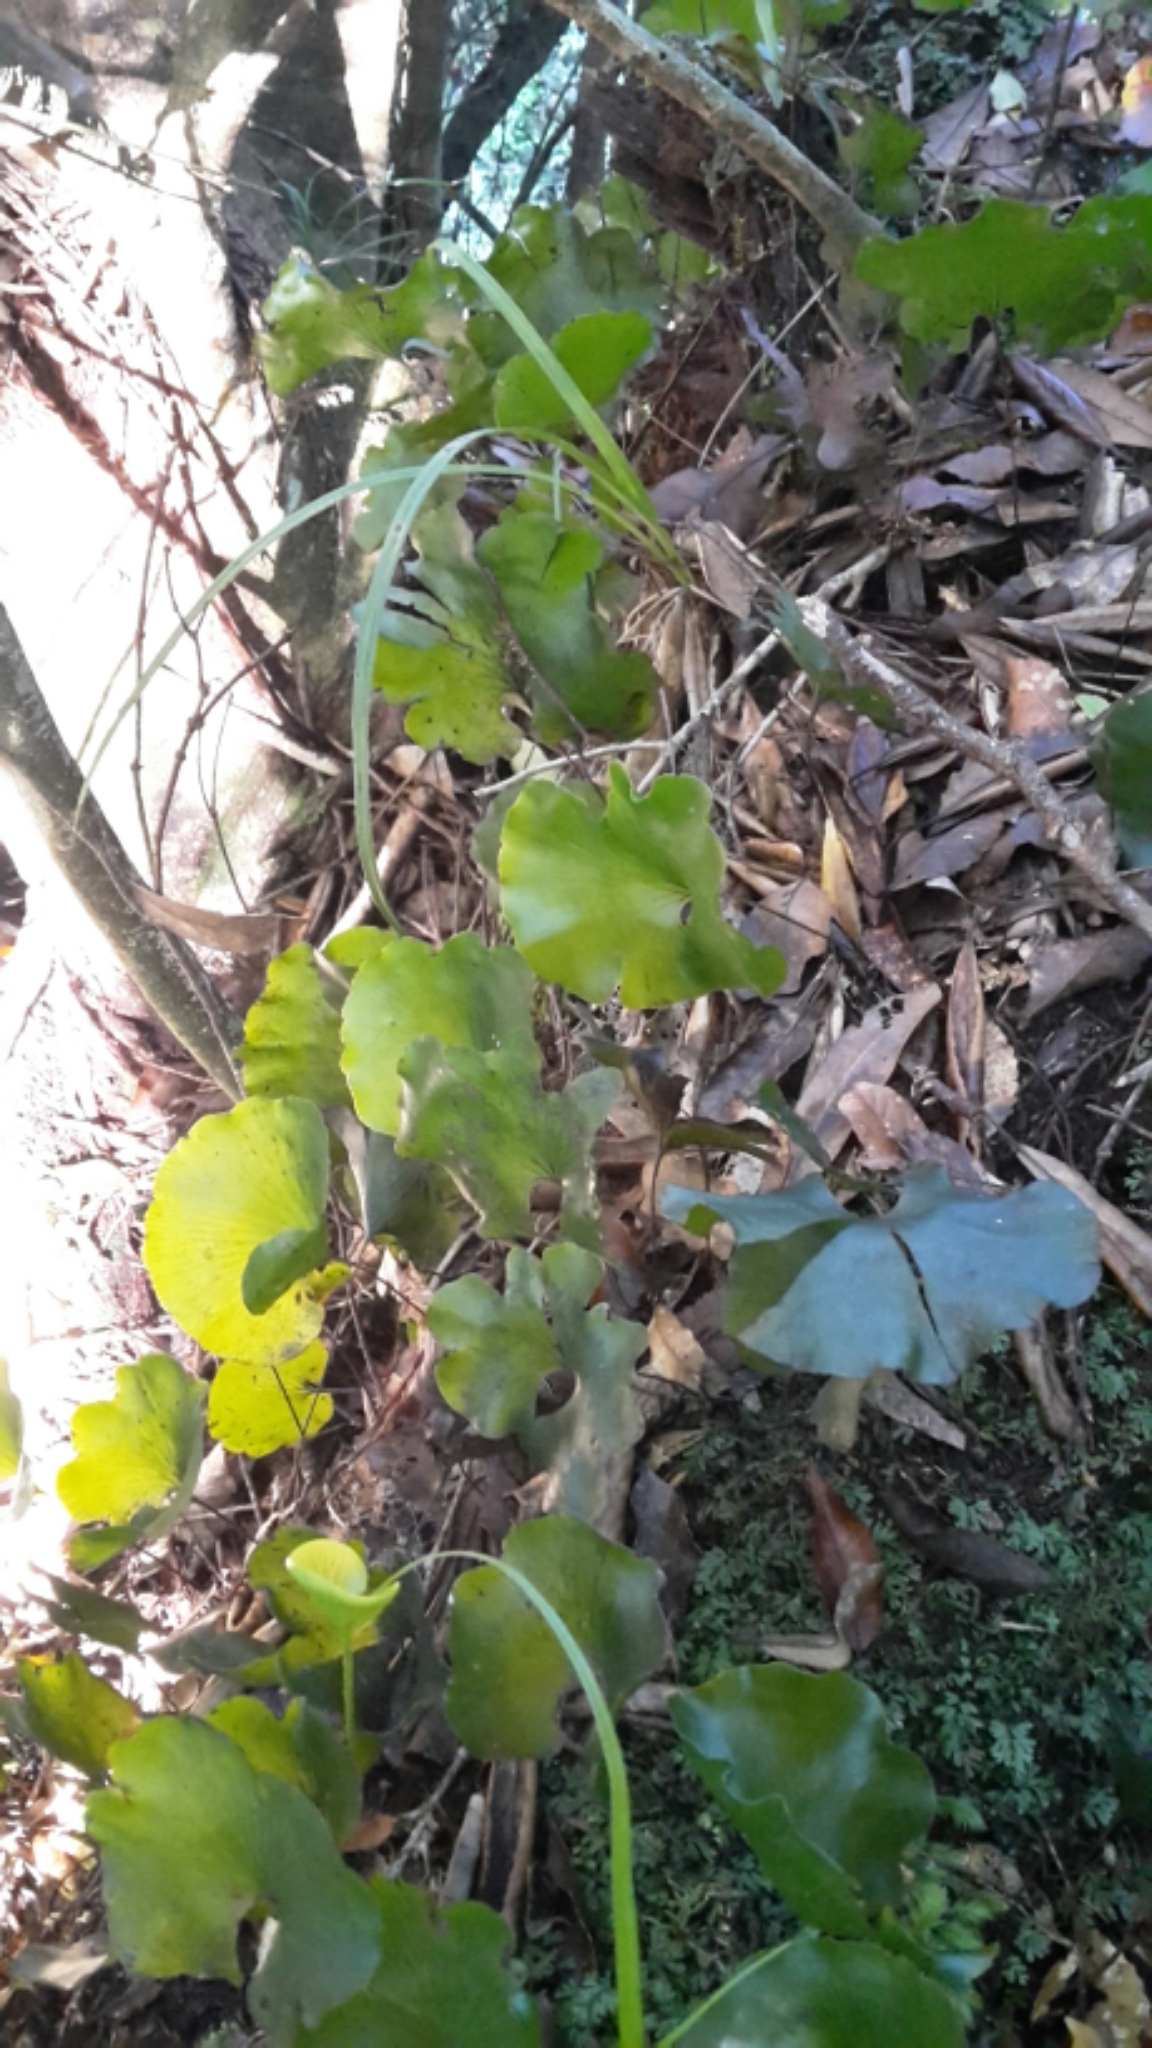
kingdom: Plantae
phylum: Tracheophyta
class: Polypodiopsida
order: Hymenophyllales
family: Hymenophyllaceae
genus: Hymenophyllum
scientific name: Hymenophyllum nephrophyllum
